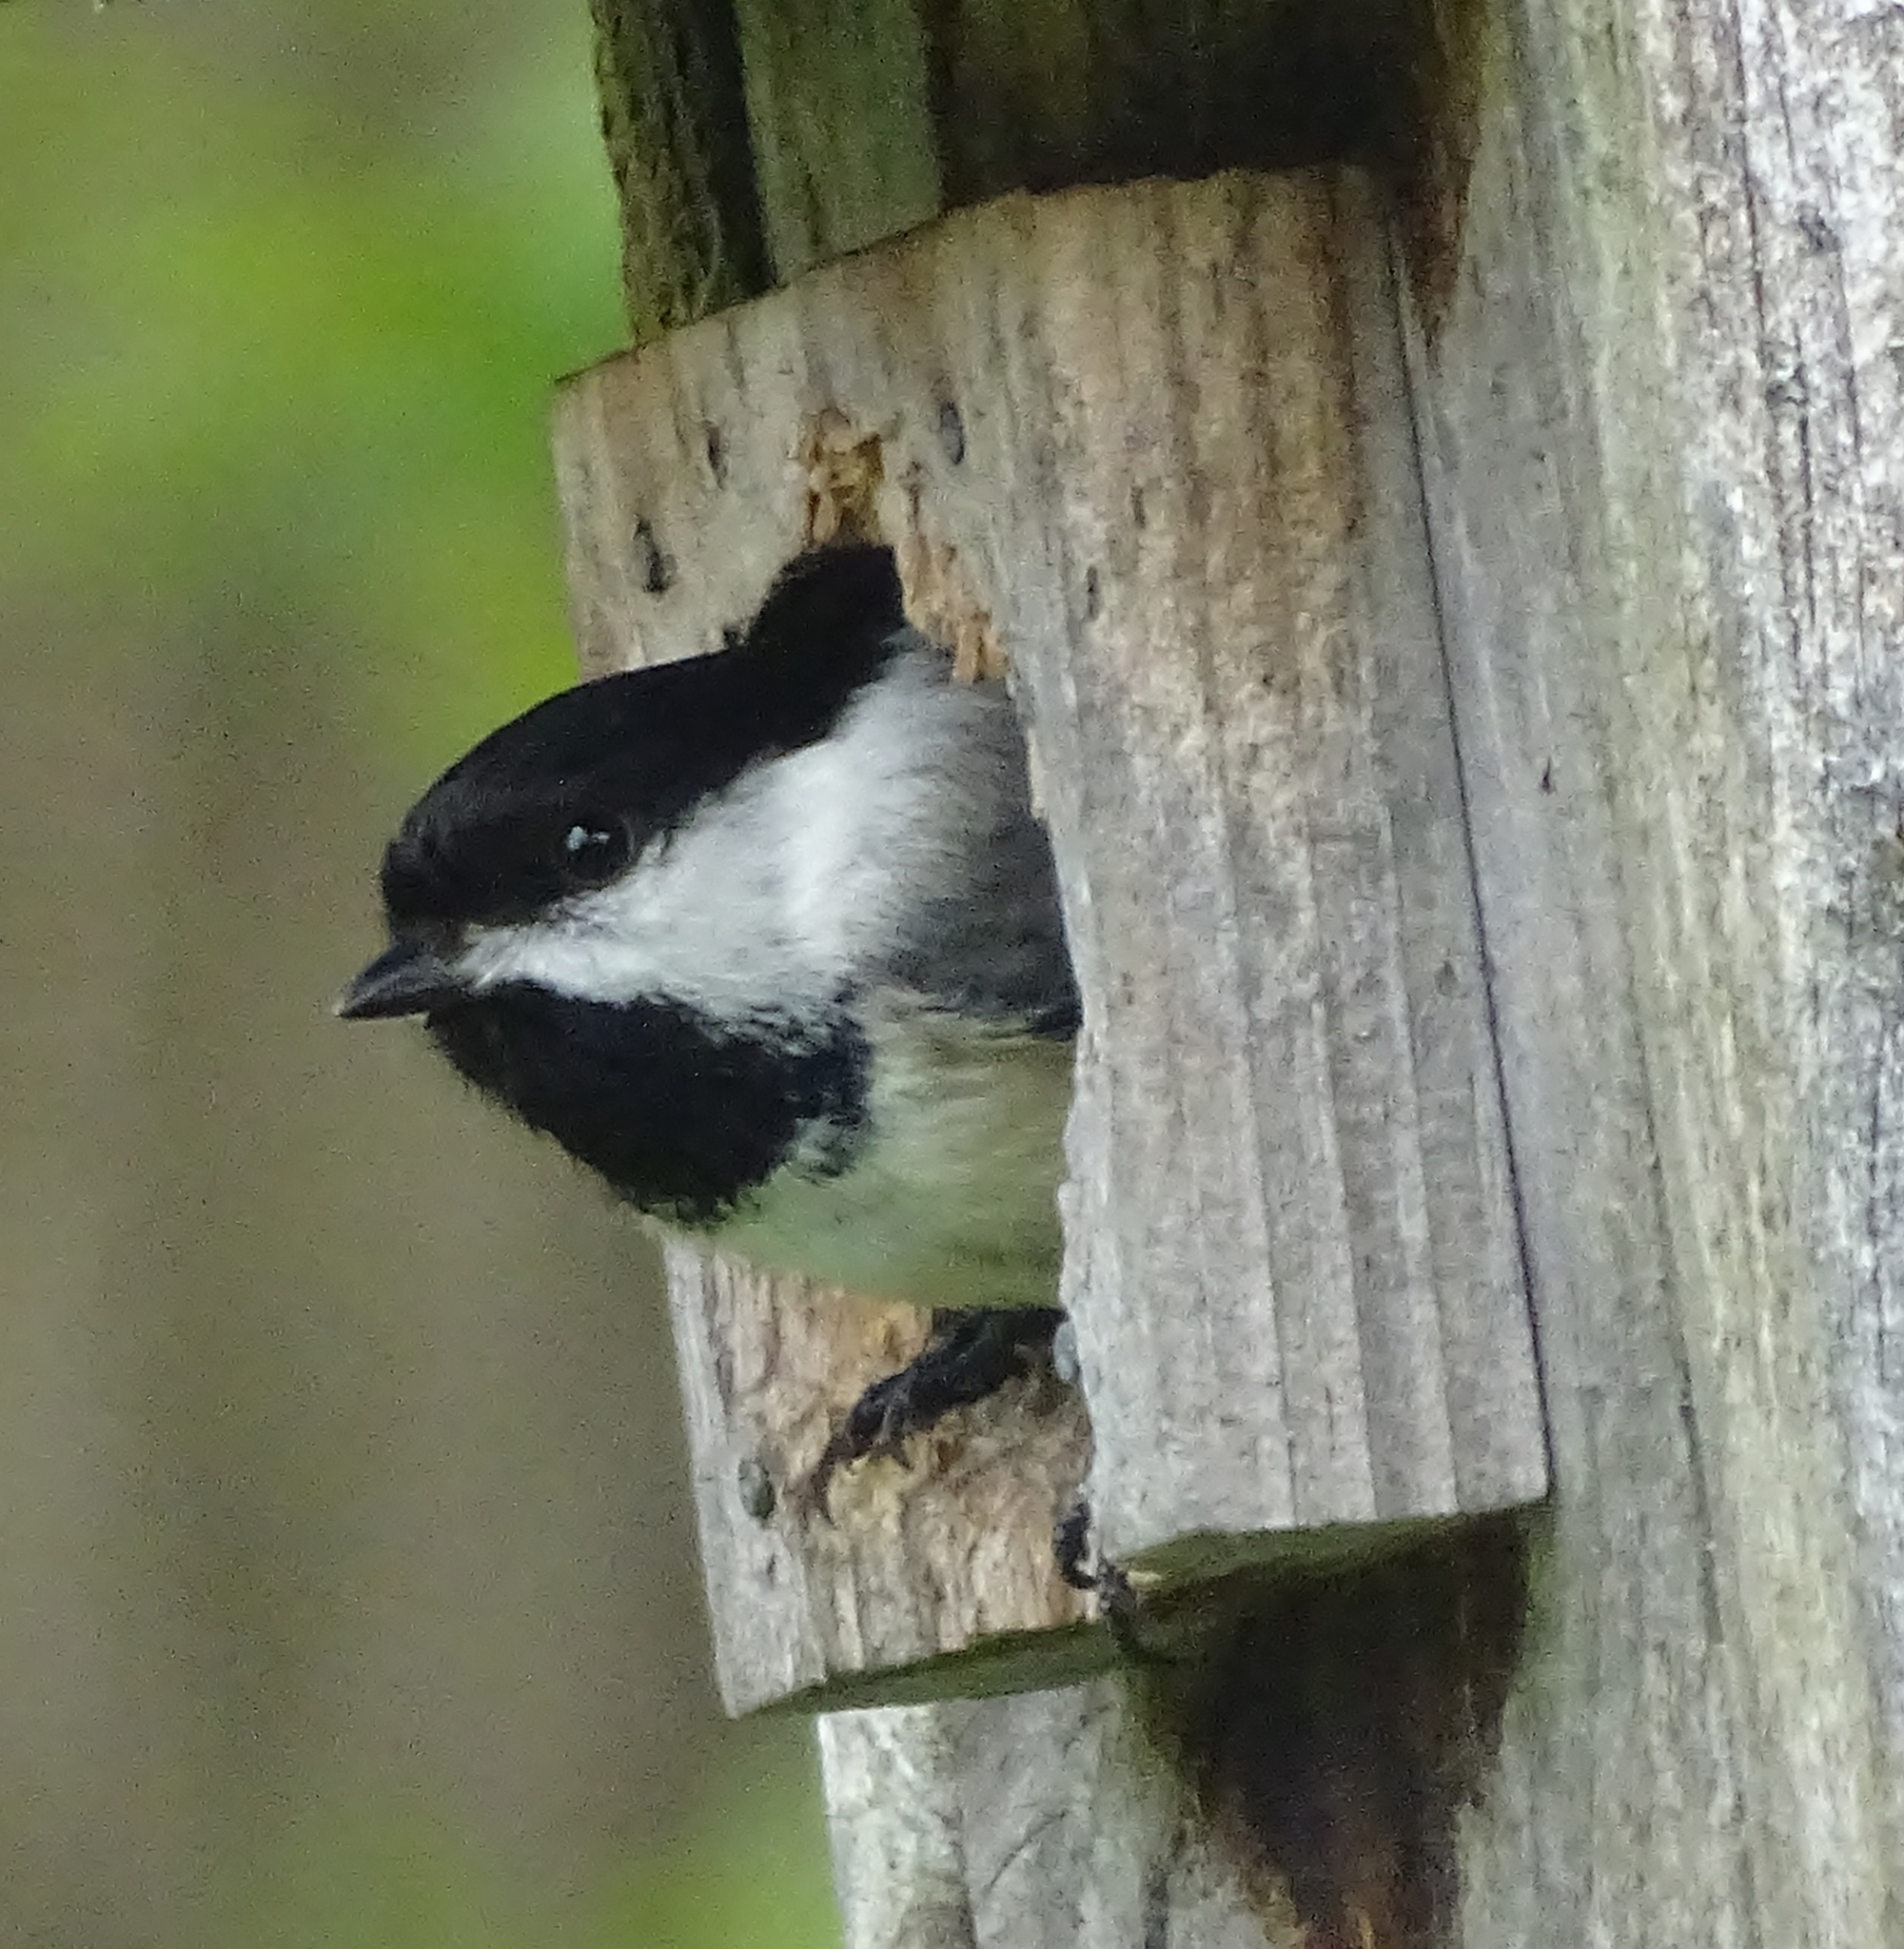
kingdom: Animalia
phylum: Chordata
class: Aves
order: Passeriformes
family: Paridae
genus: Poecile
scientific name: Poecile atricapillus
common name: Black-capped chickadee
